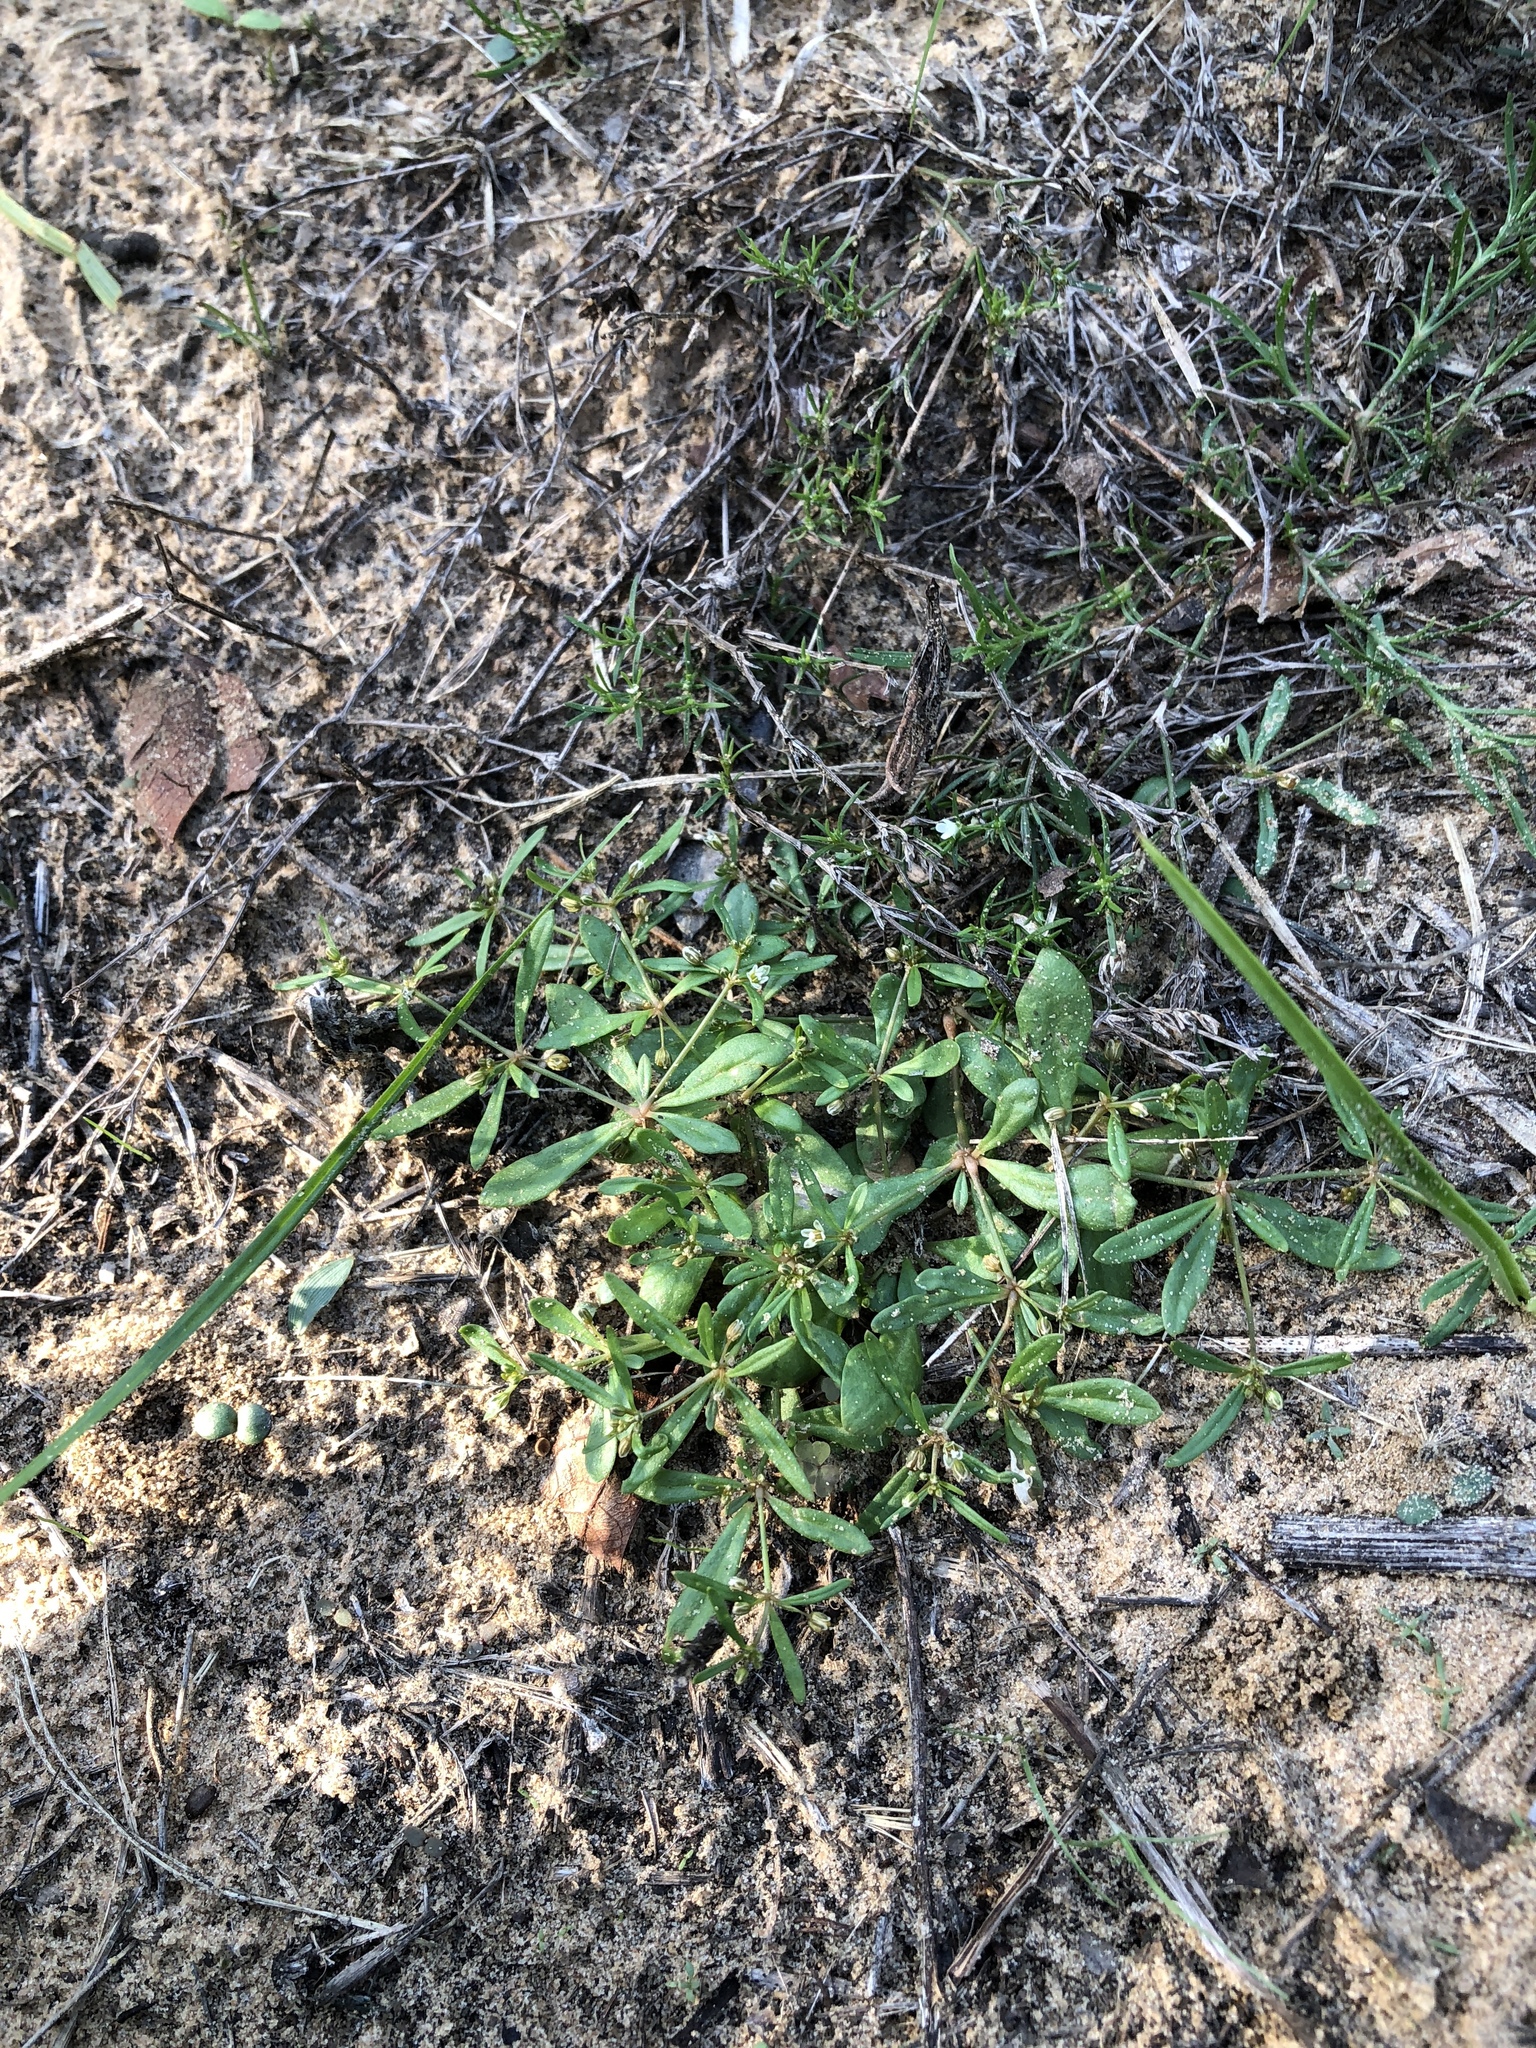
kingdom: Plantae
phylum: Tracheophyta
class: Magnoliopsida
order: Caryophyllales
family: Molluginaceae
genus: Mollugo
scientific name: Mollugo verticillata
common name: Green carpetweed
